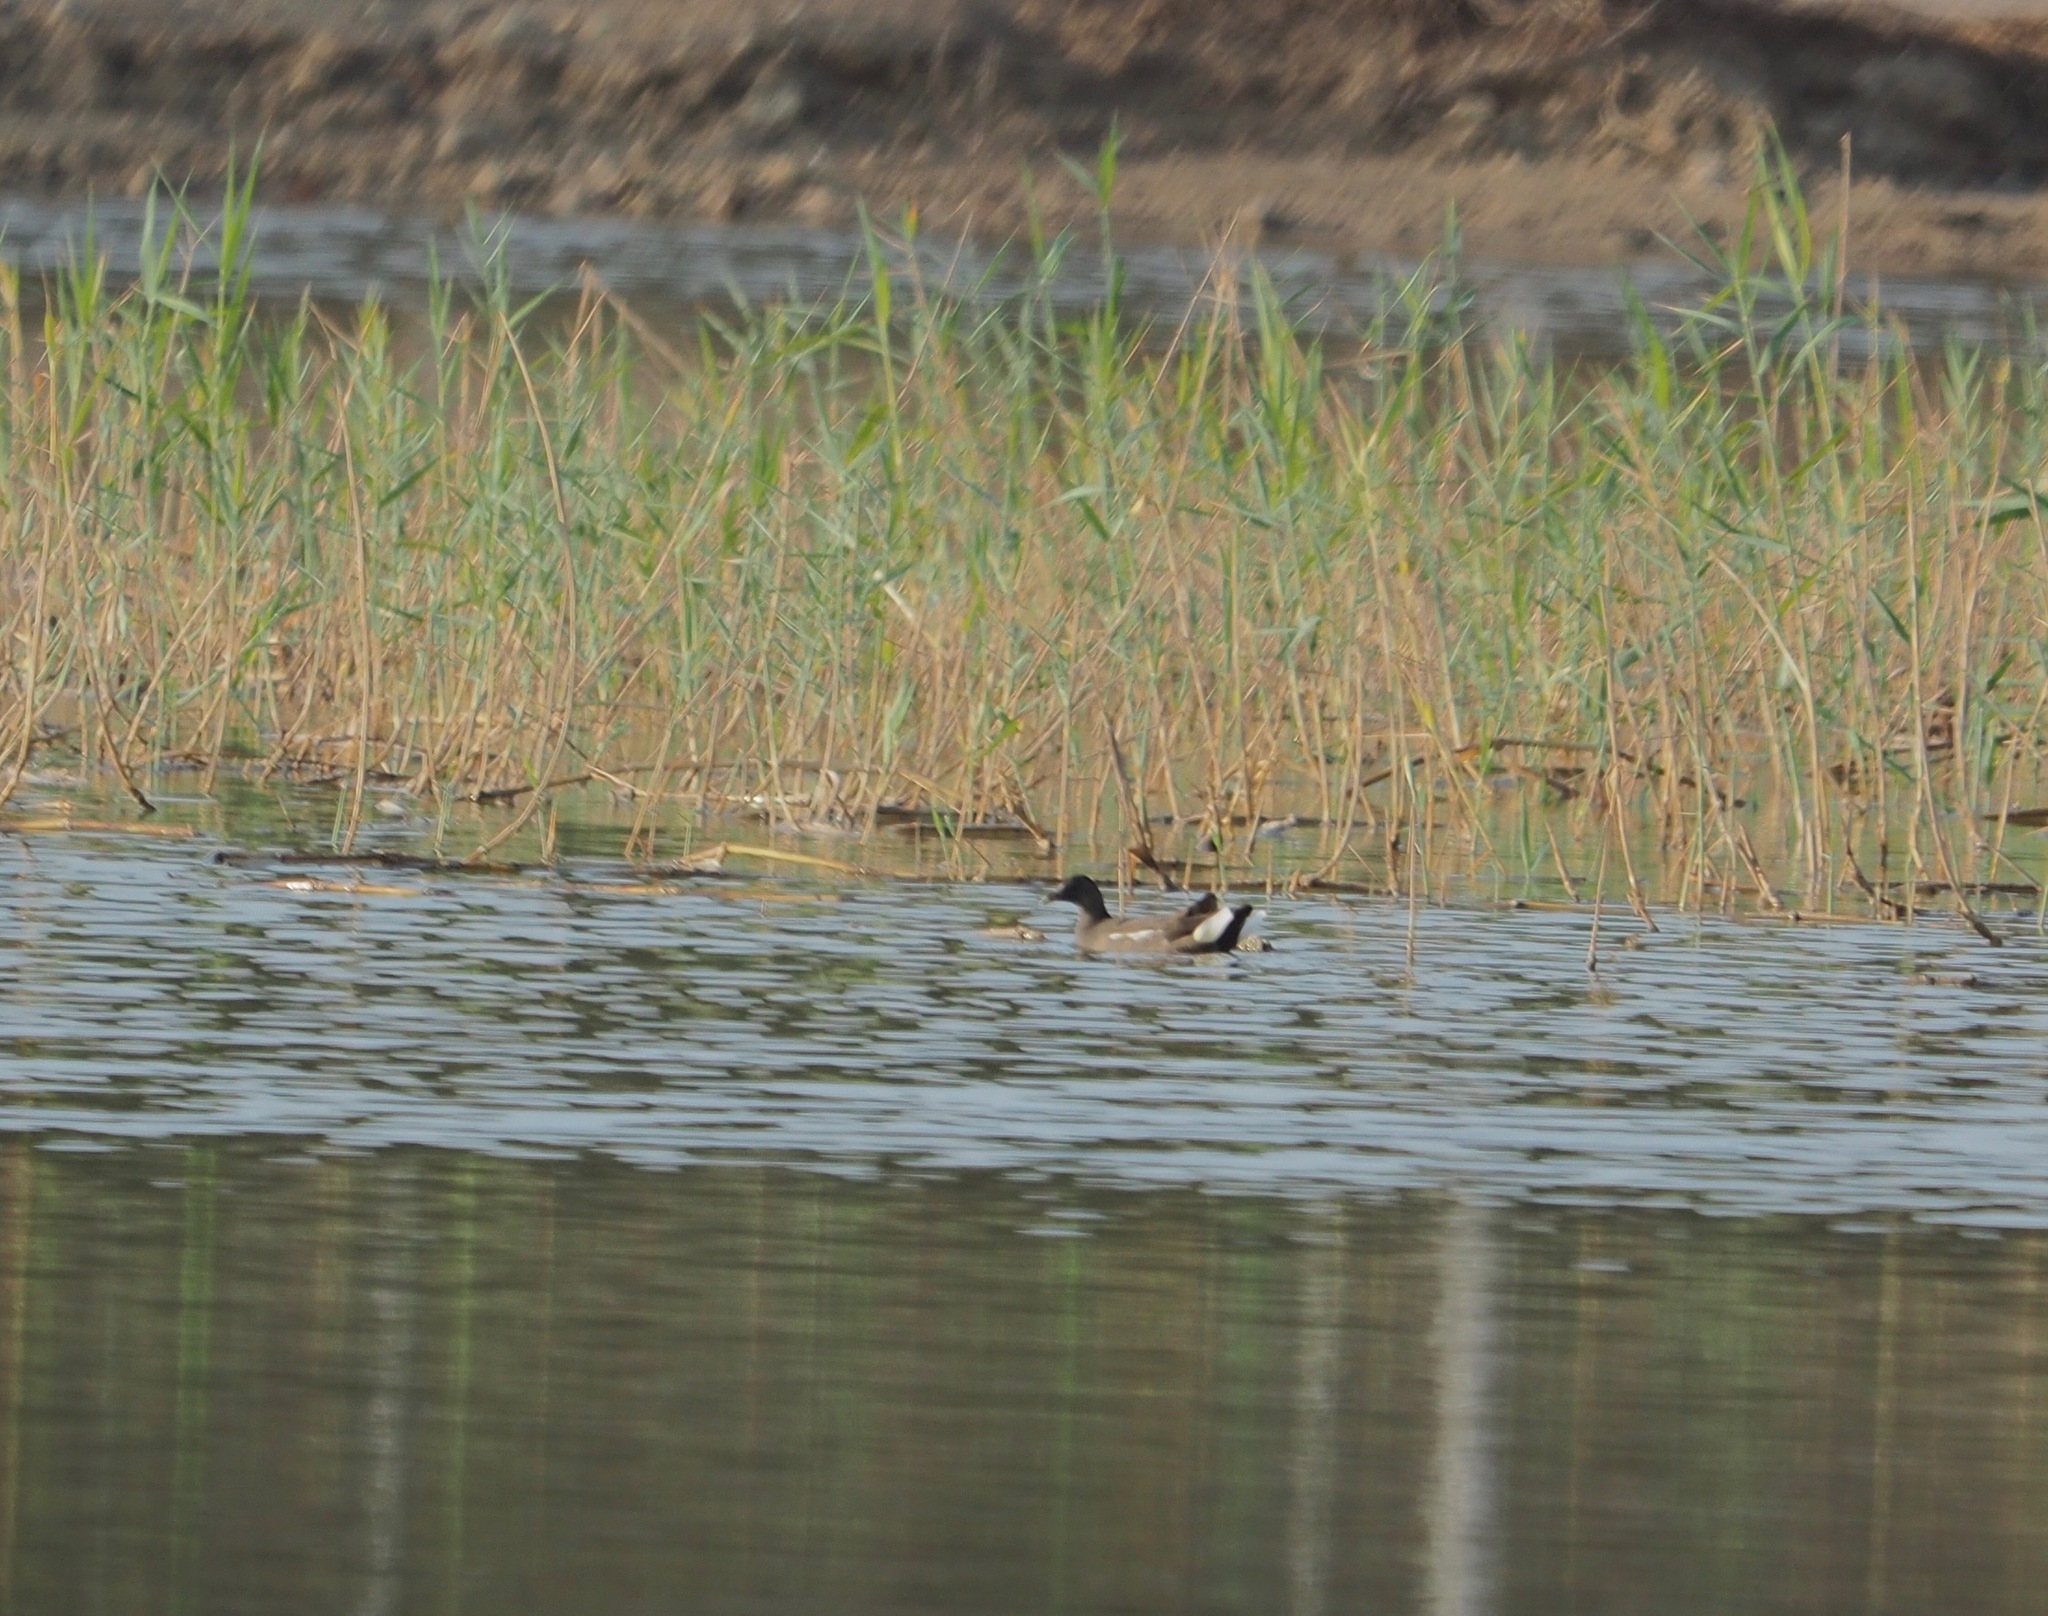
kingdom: Animalia
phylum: Chordata
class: Aves
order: Gruiformes
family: Rallidae
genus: Gallinula
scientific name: Gallinula chloropus
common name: Common moorhen
